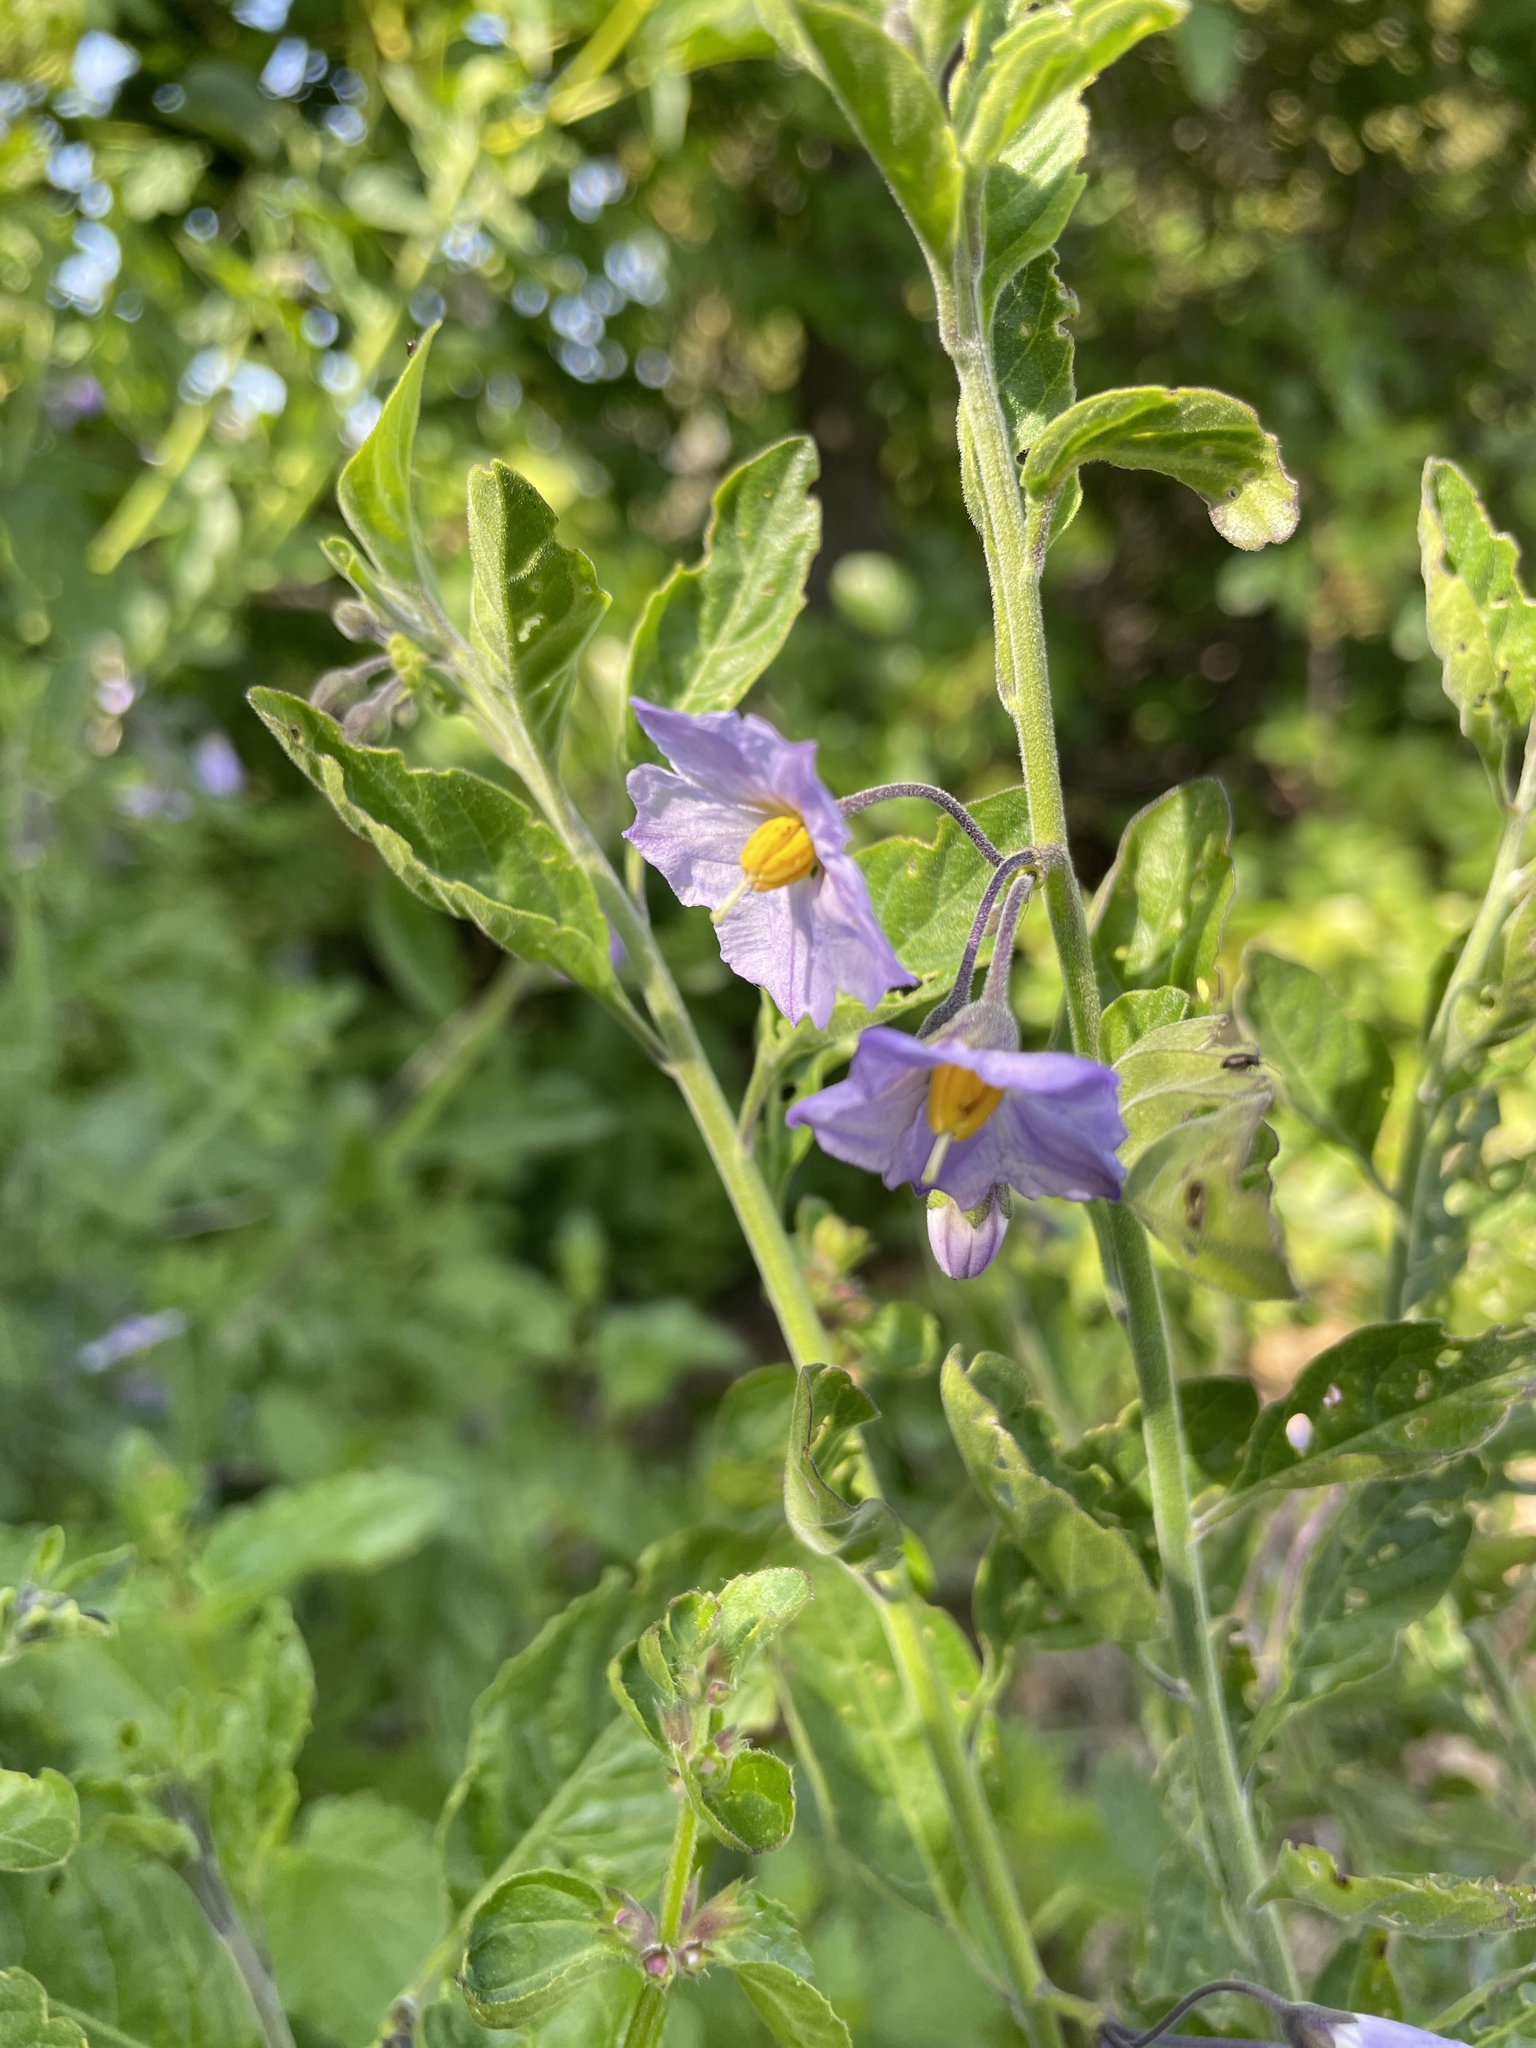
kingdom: Plantae
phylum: Tracheophyta
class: Magnoliopsida
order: Solanales
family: Solanaceae
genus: Solanum
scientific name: Solanum umbelliferum
